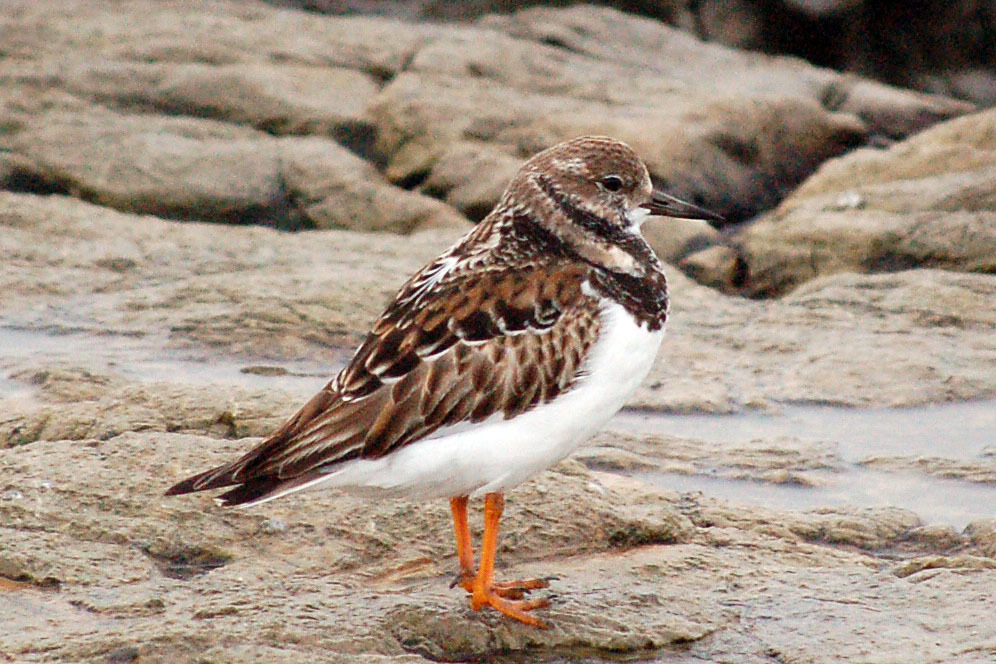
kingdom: Animalia
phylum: Chordata
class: Aves
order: Charadriiformes
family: Scolopacidae
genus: Arenaria
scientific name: Arenaria interpres
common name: Ruddy turnstone
